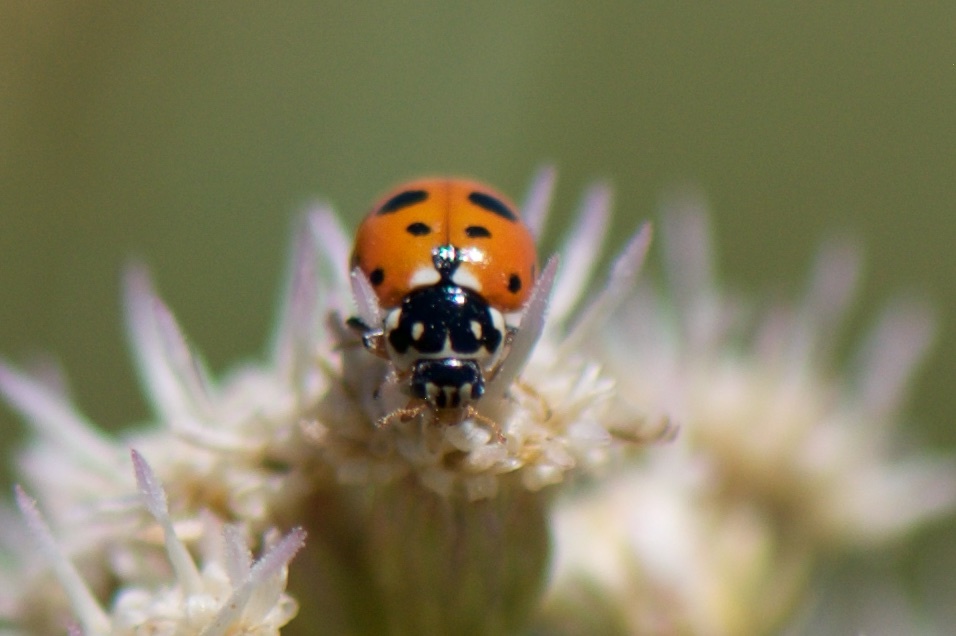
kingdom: Animalia
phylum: Arthropoda
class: Insecta
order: Coleoptera
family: Coccinellidae
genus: Hippodamia
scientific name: Hippodamia variegata
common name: Ladybird beetle
